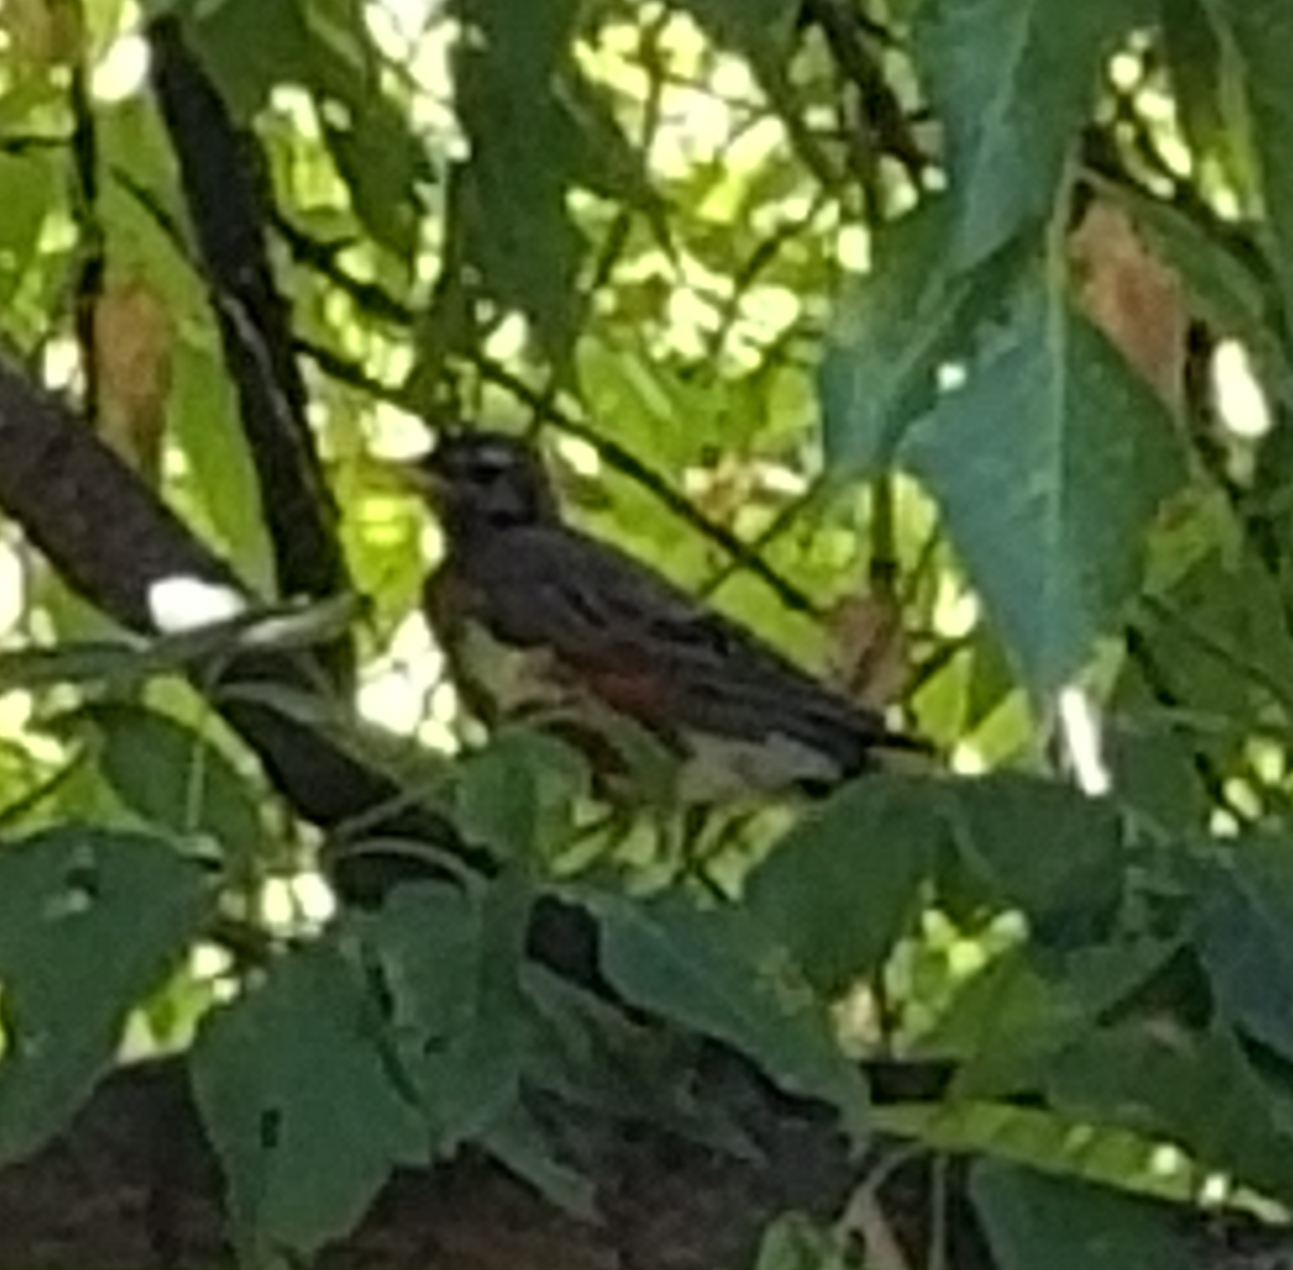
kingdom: Animalia
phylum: Chordata
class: Aves
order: Passeriformes
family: Turdidae
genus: Turdus
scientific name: Turdus migratorius
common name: American robin
